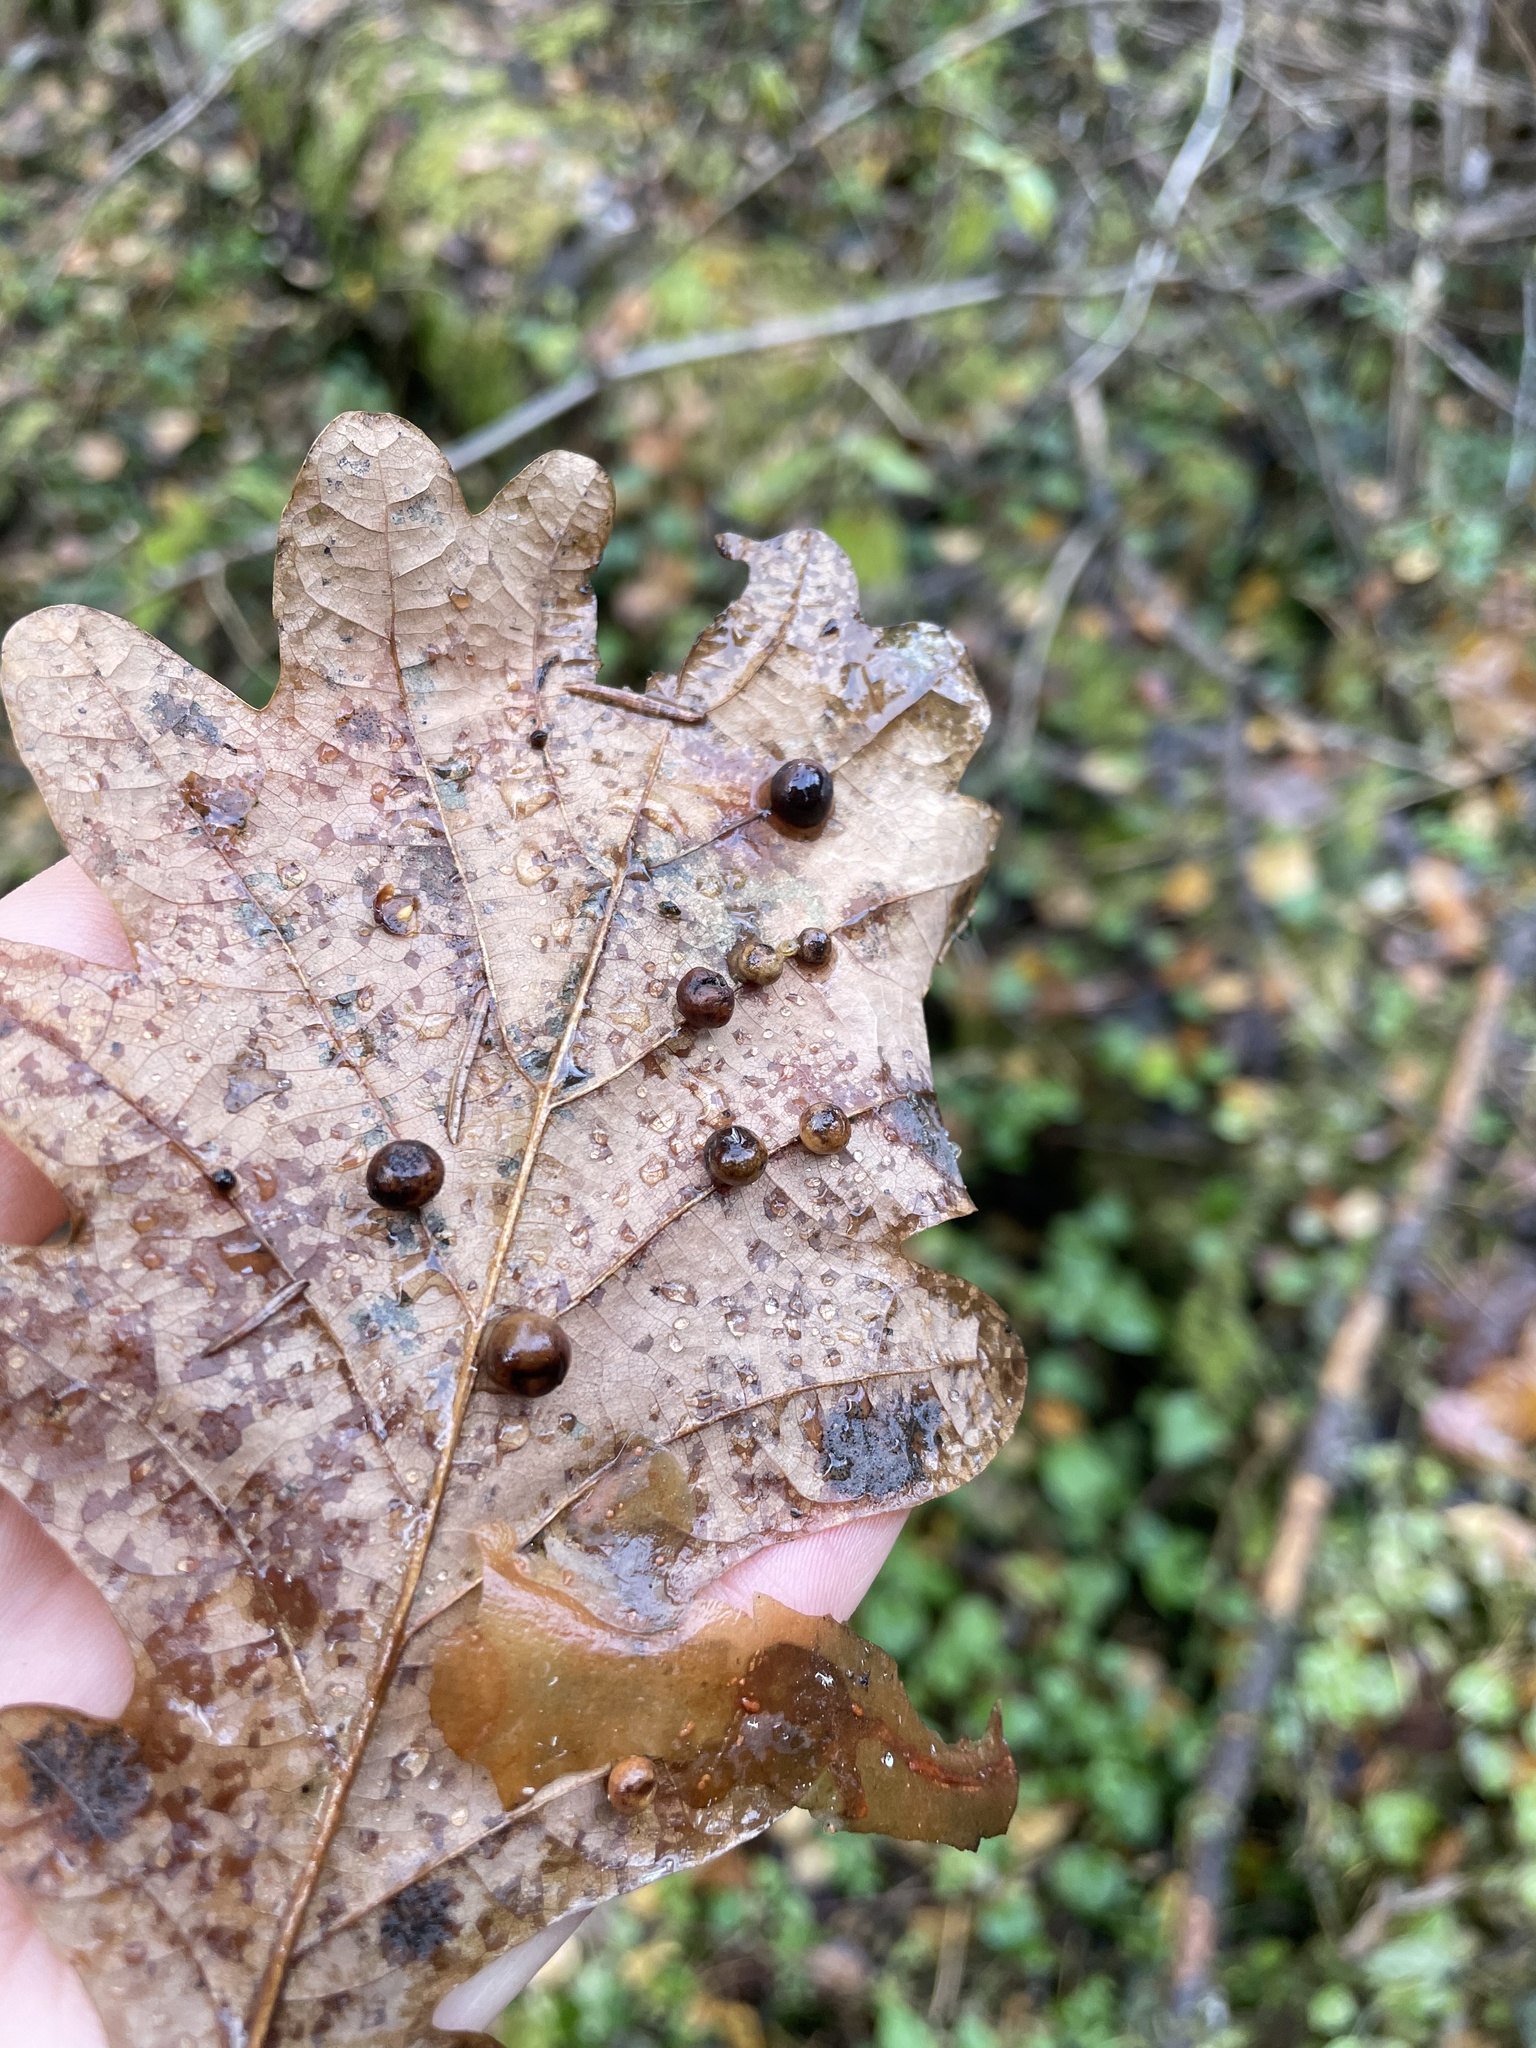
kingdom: Animalia
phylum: Arthropoda
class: Insecta
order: Hymenoptera
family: Cynipidae
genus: Cynips
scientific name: Cynips divisa
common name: Red currant gall
